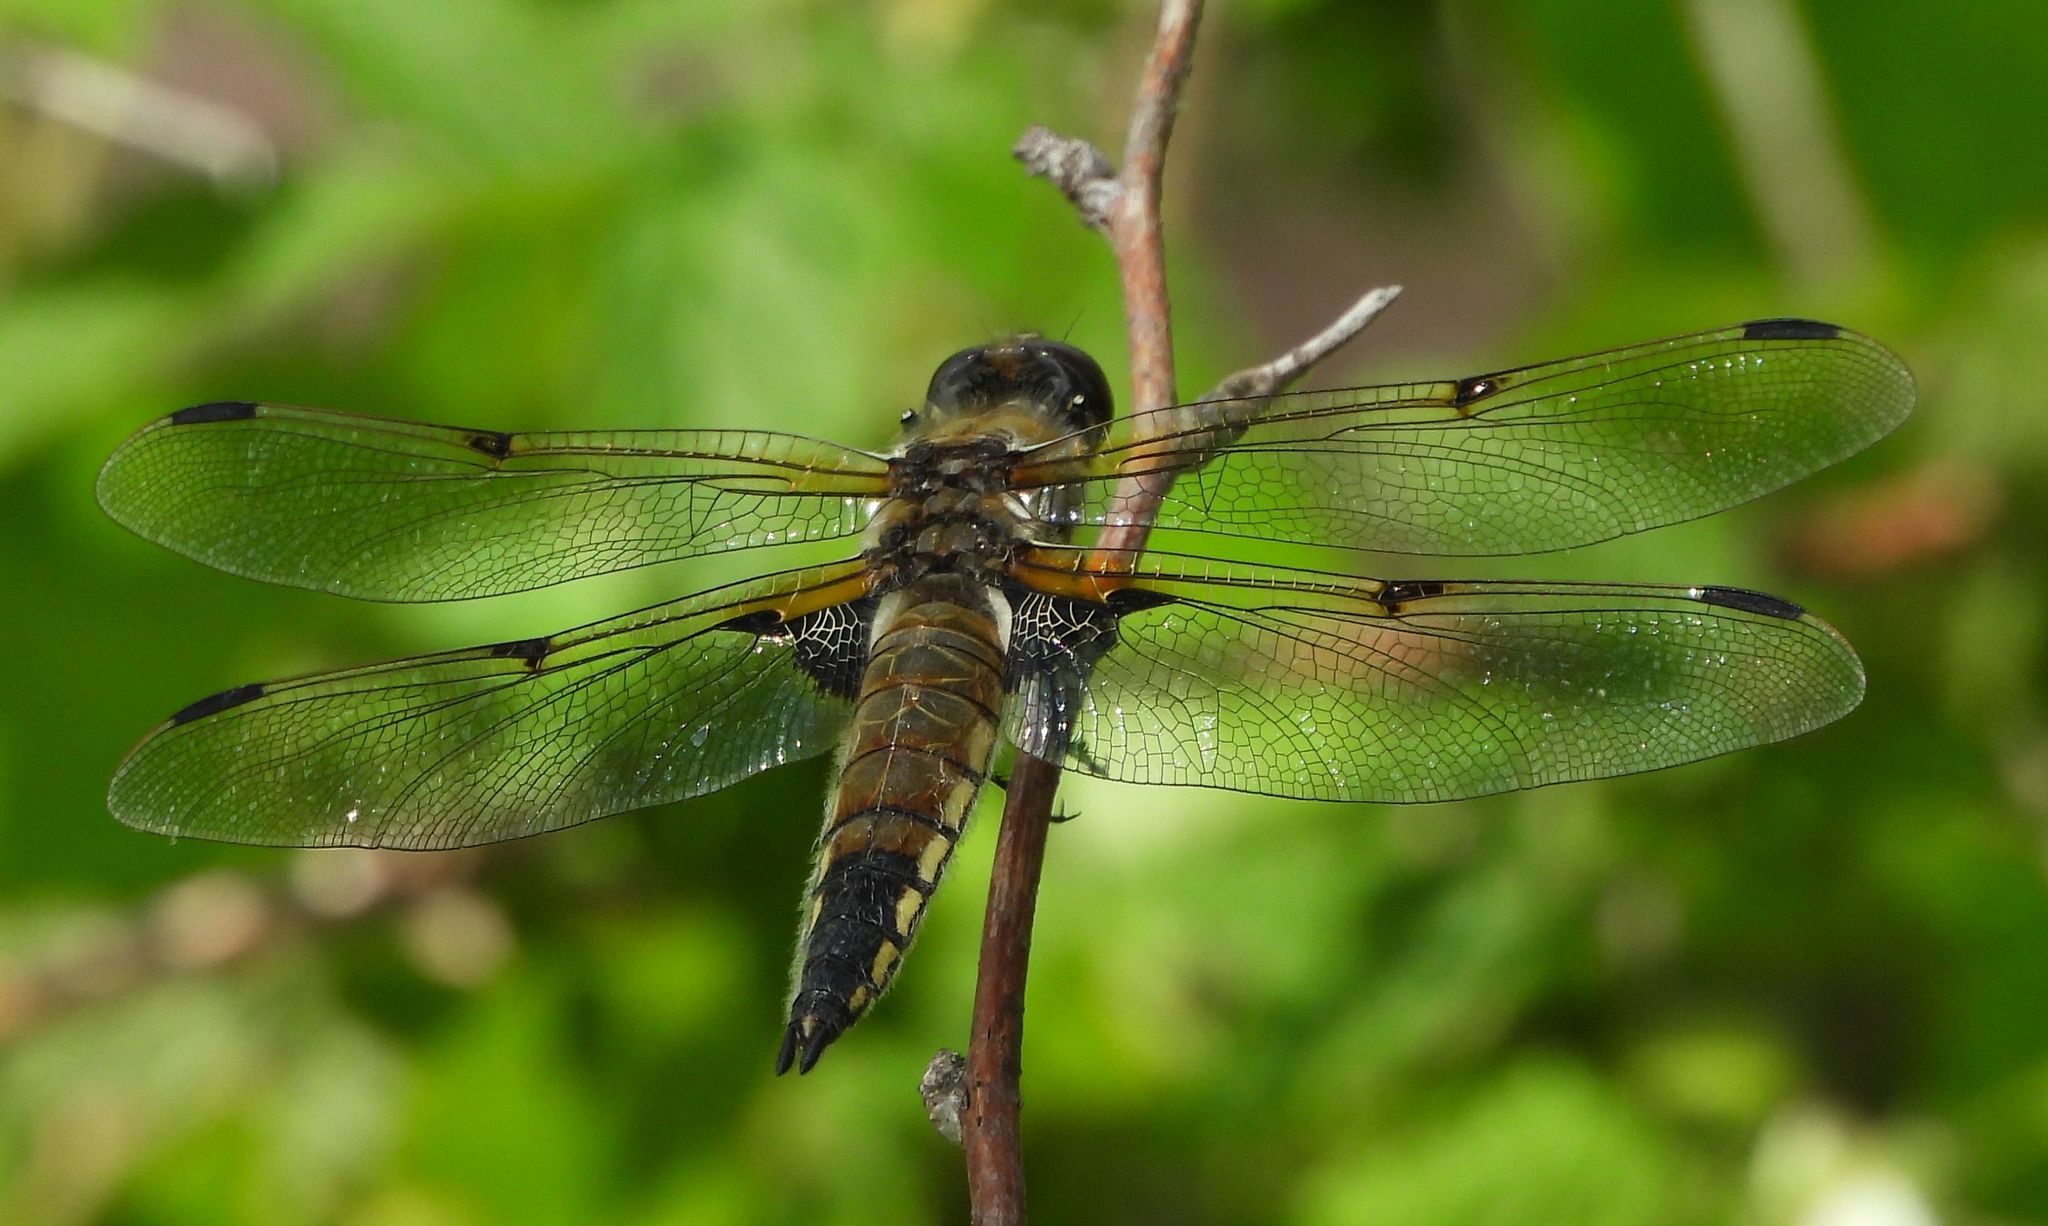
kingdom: Animalia
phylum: Arthropoda
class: Insecta
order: Odonata
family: Libellulidae
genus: Libellula
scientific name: Libellula quadrimaculata
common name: Four-spotted chaser
